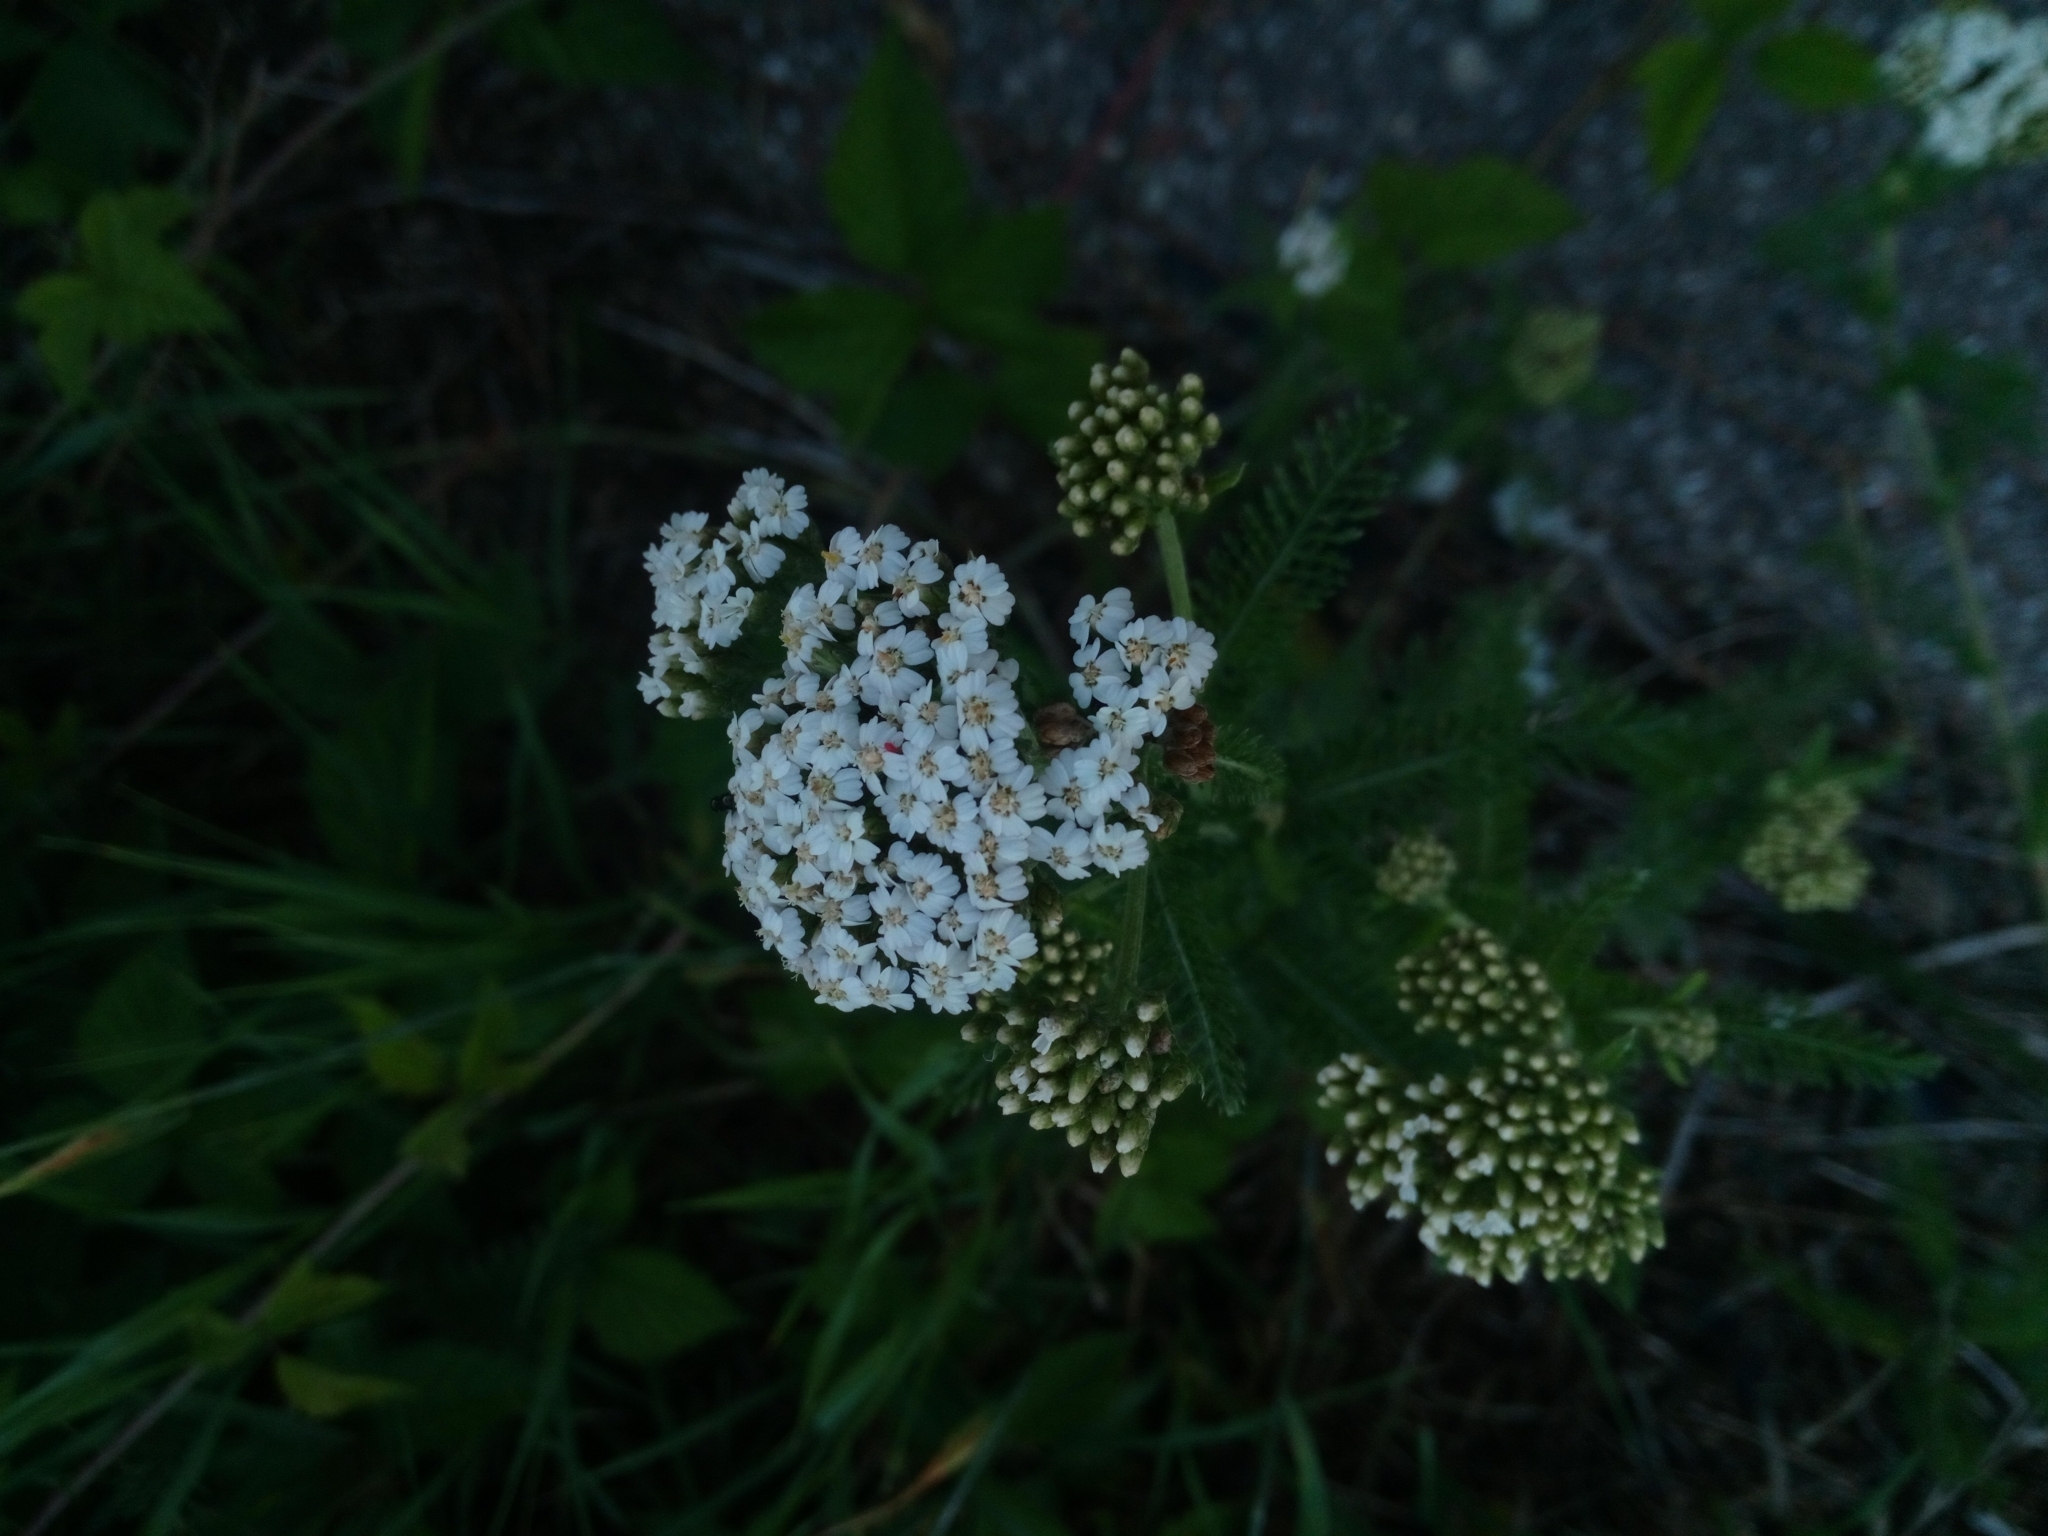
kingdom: Plantae
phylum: Tracheophyta
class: Magnoliopsida
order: Asterales
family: Asteraceae
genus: Achillea
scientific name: Achillea millefolium
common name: Yarrow
